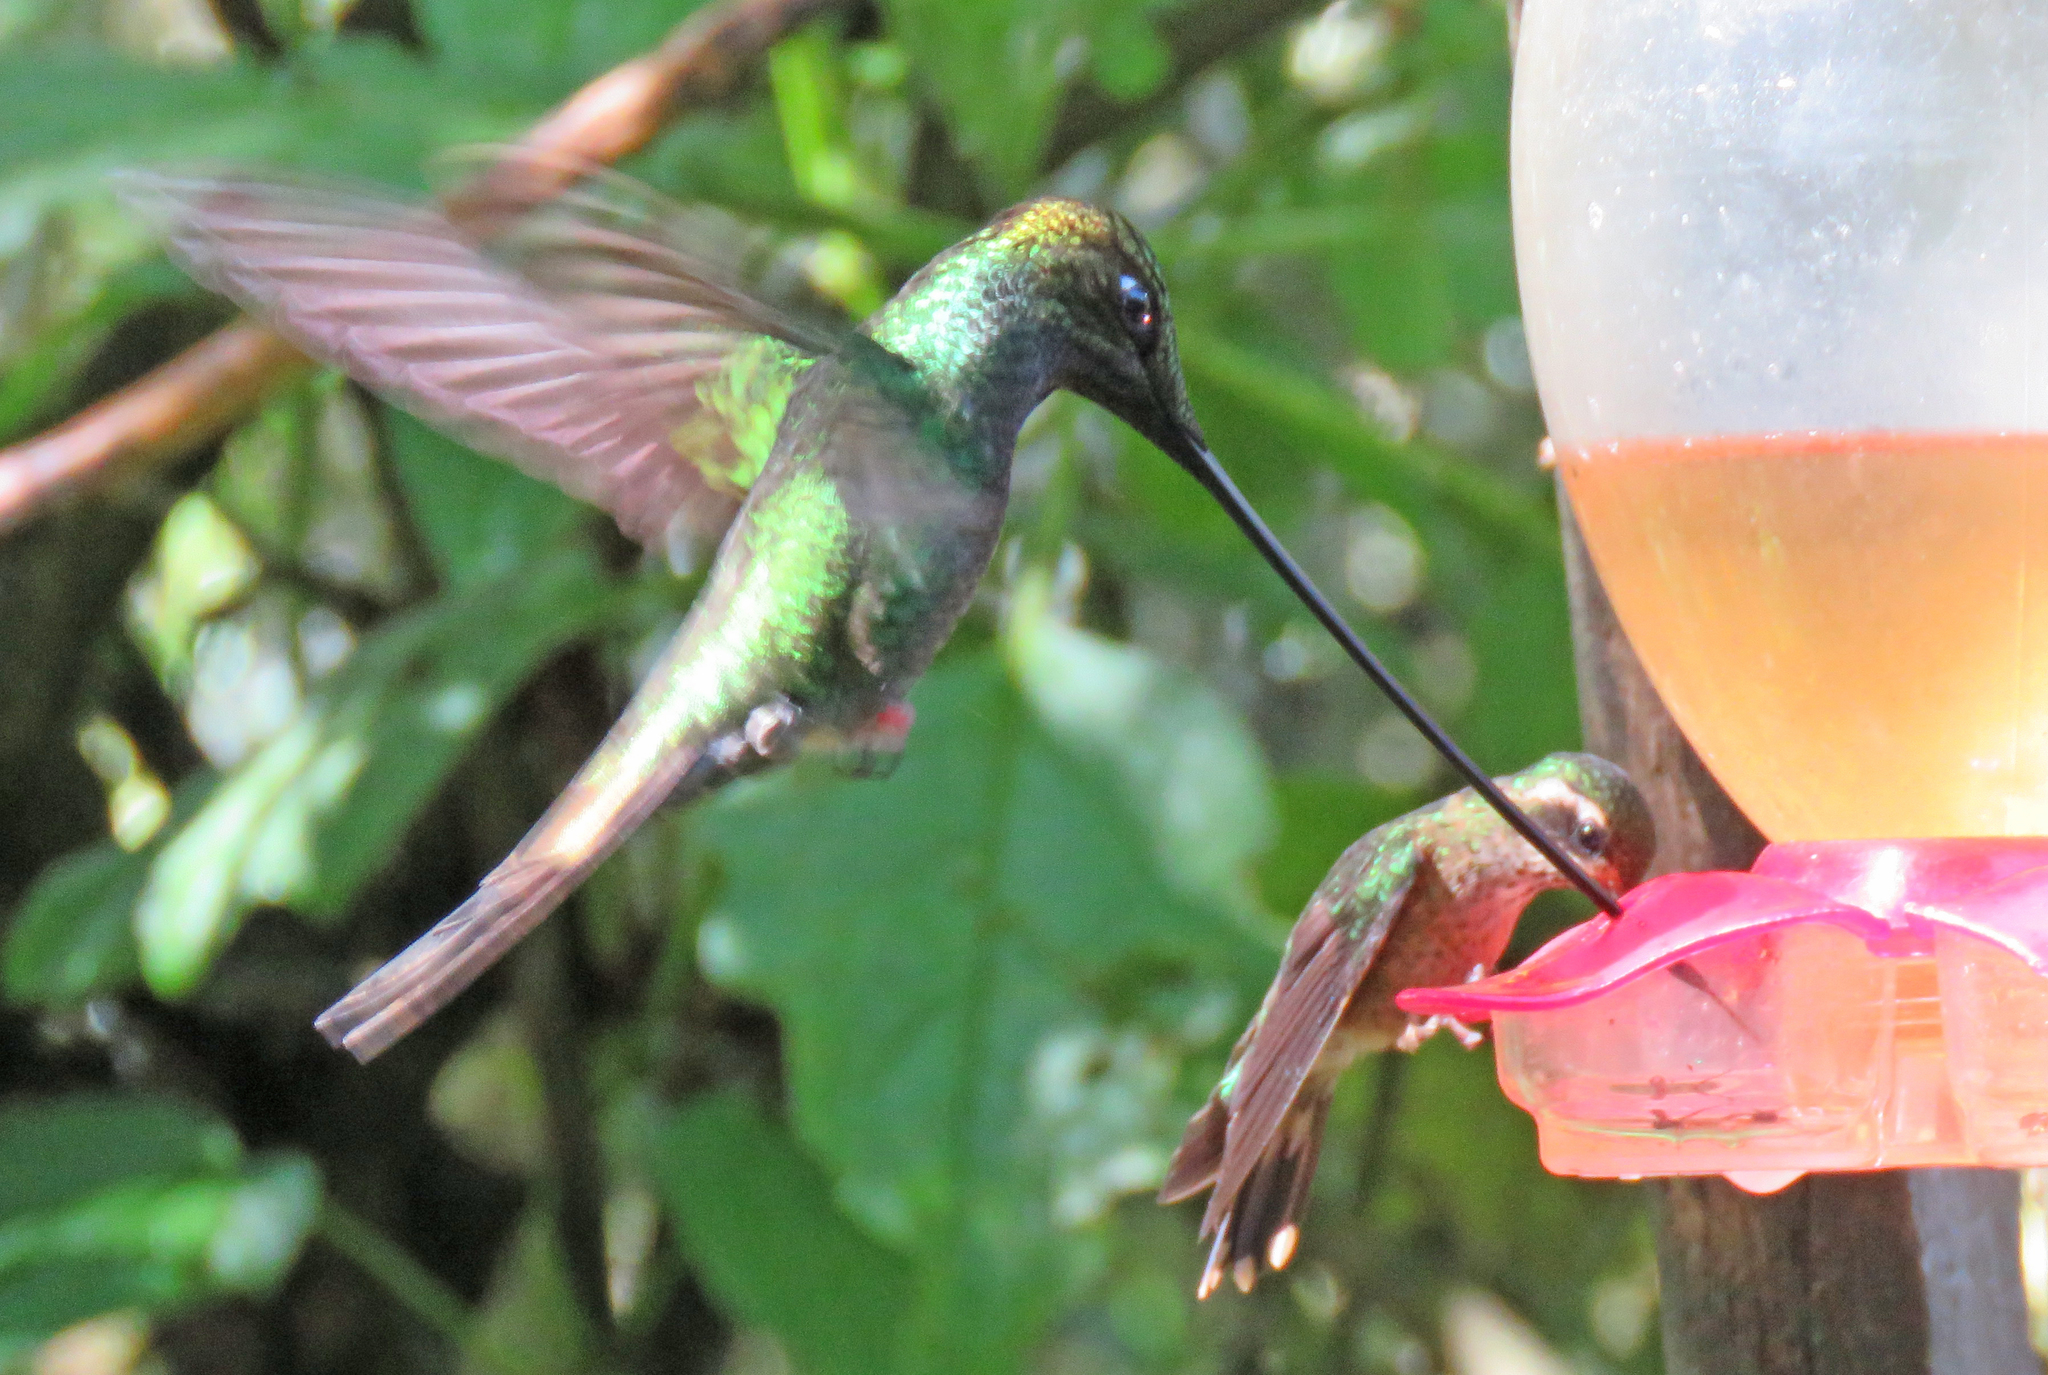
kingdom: Animalia
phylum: Chordata
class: Aves
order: Apodiformes
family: Trochilidae
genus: Ensifera
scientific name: Ensifera ensifera
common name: Sword-billed hummingbird
